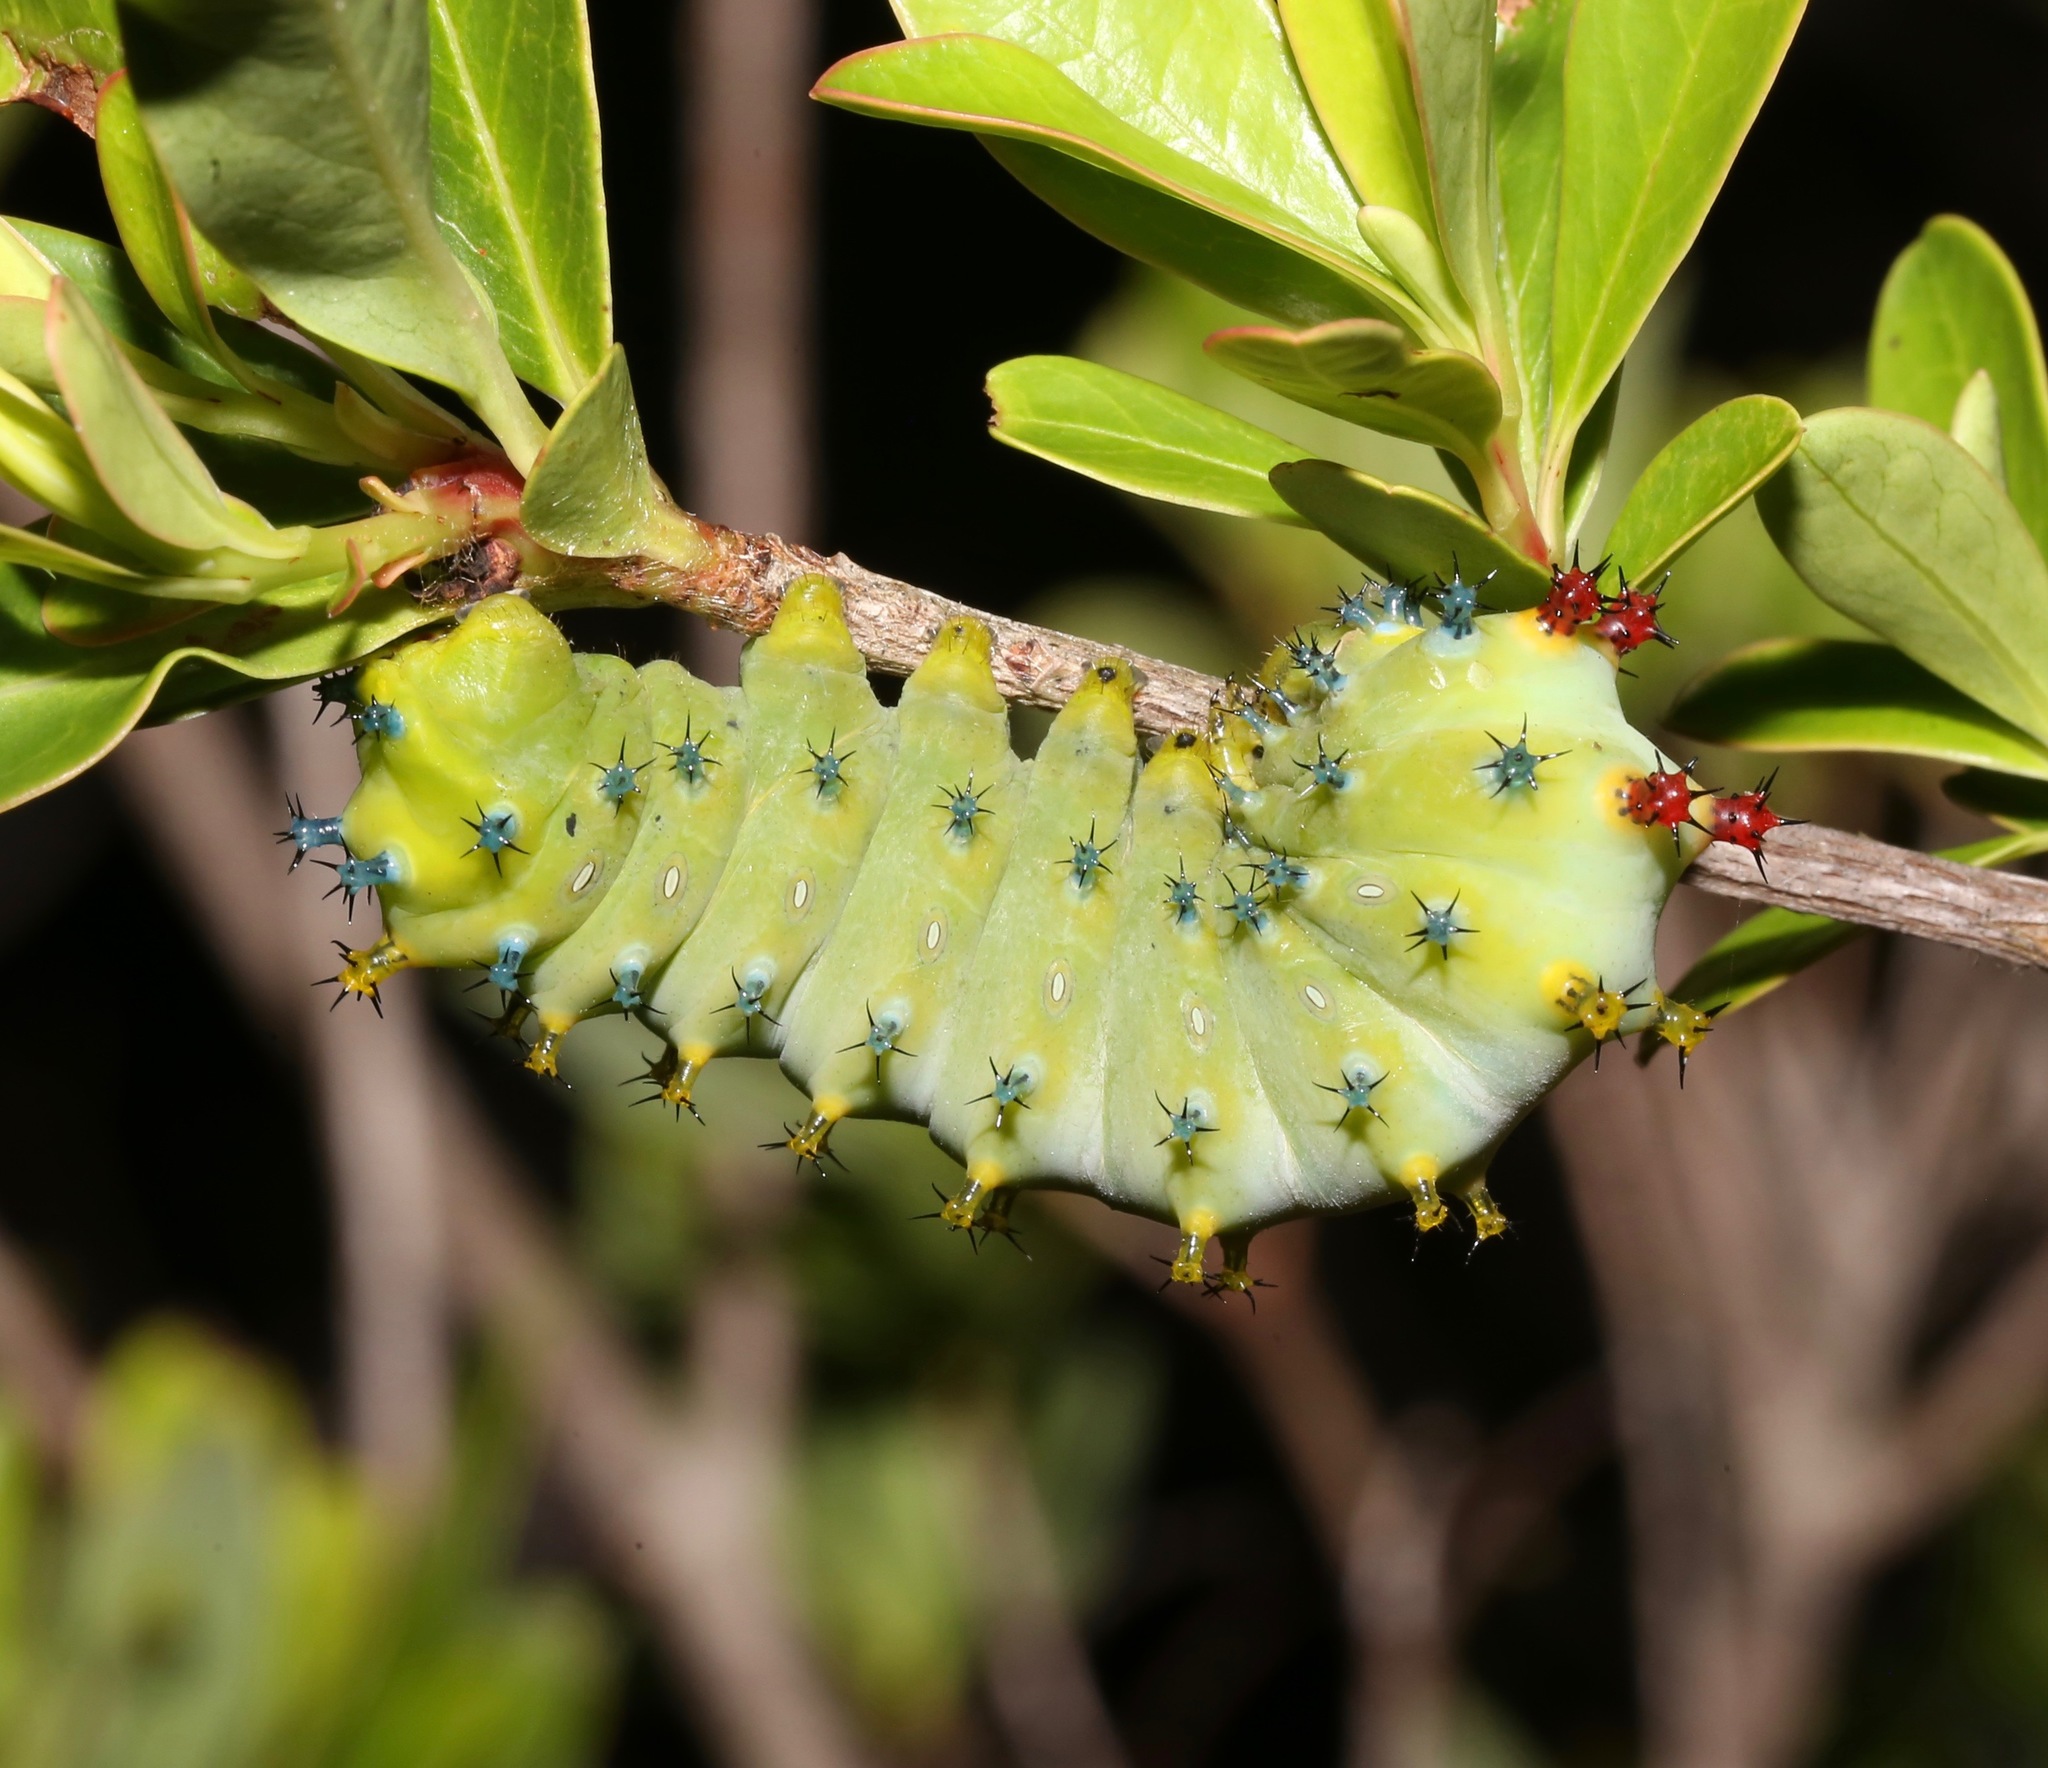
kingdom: Animalia
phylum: Arthropoda
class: Insecta
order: Lepidoptera
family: Saturniidae
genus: Hyalophora
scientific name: Hyalophora cecropia
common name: Cecropia silkmoth
